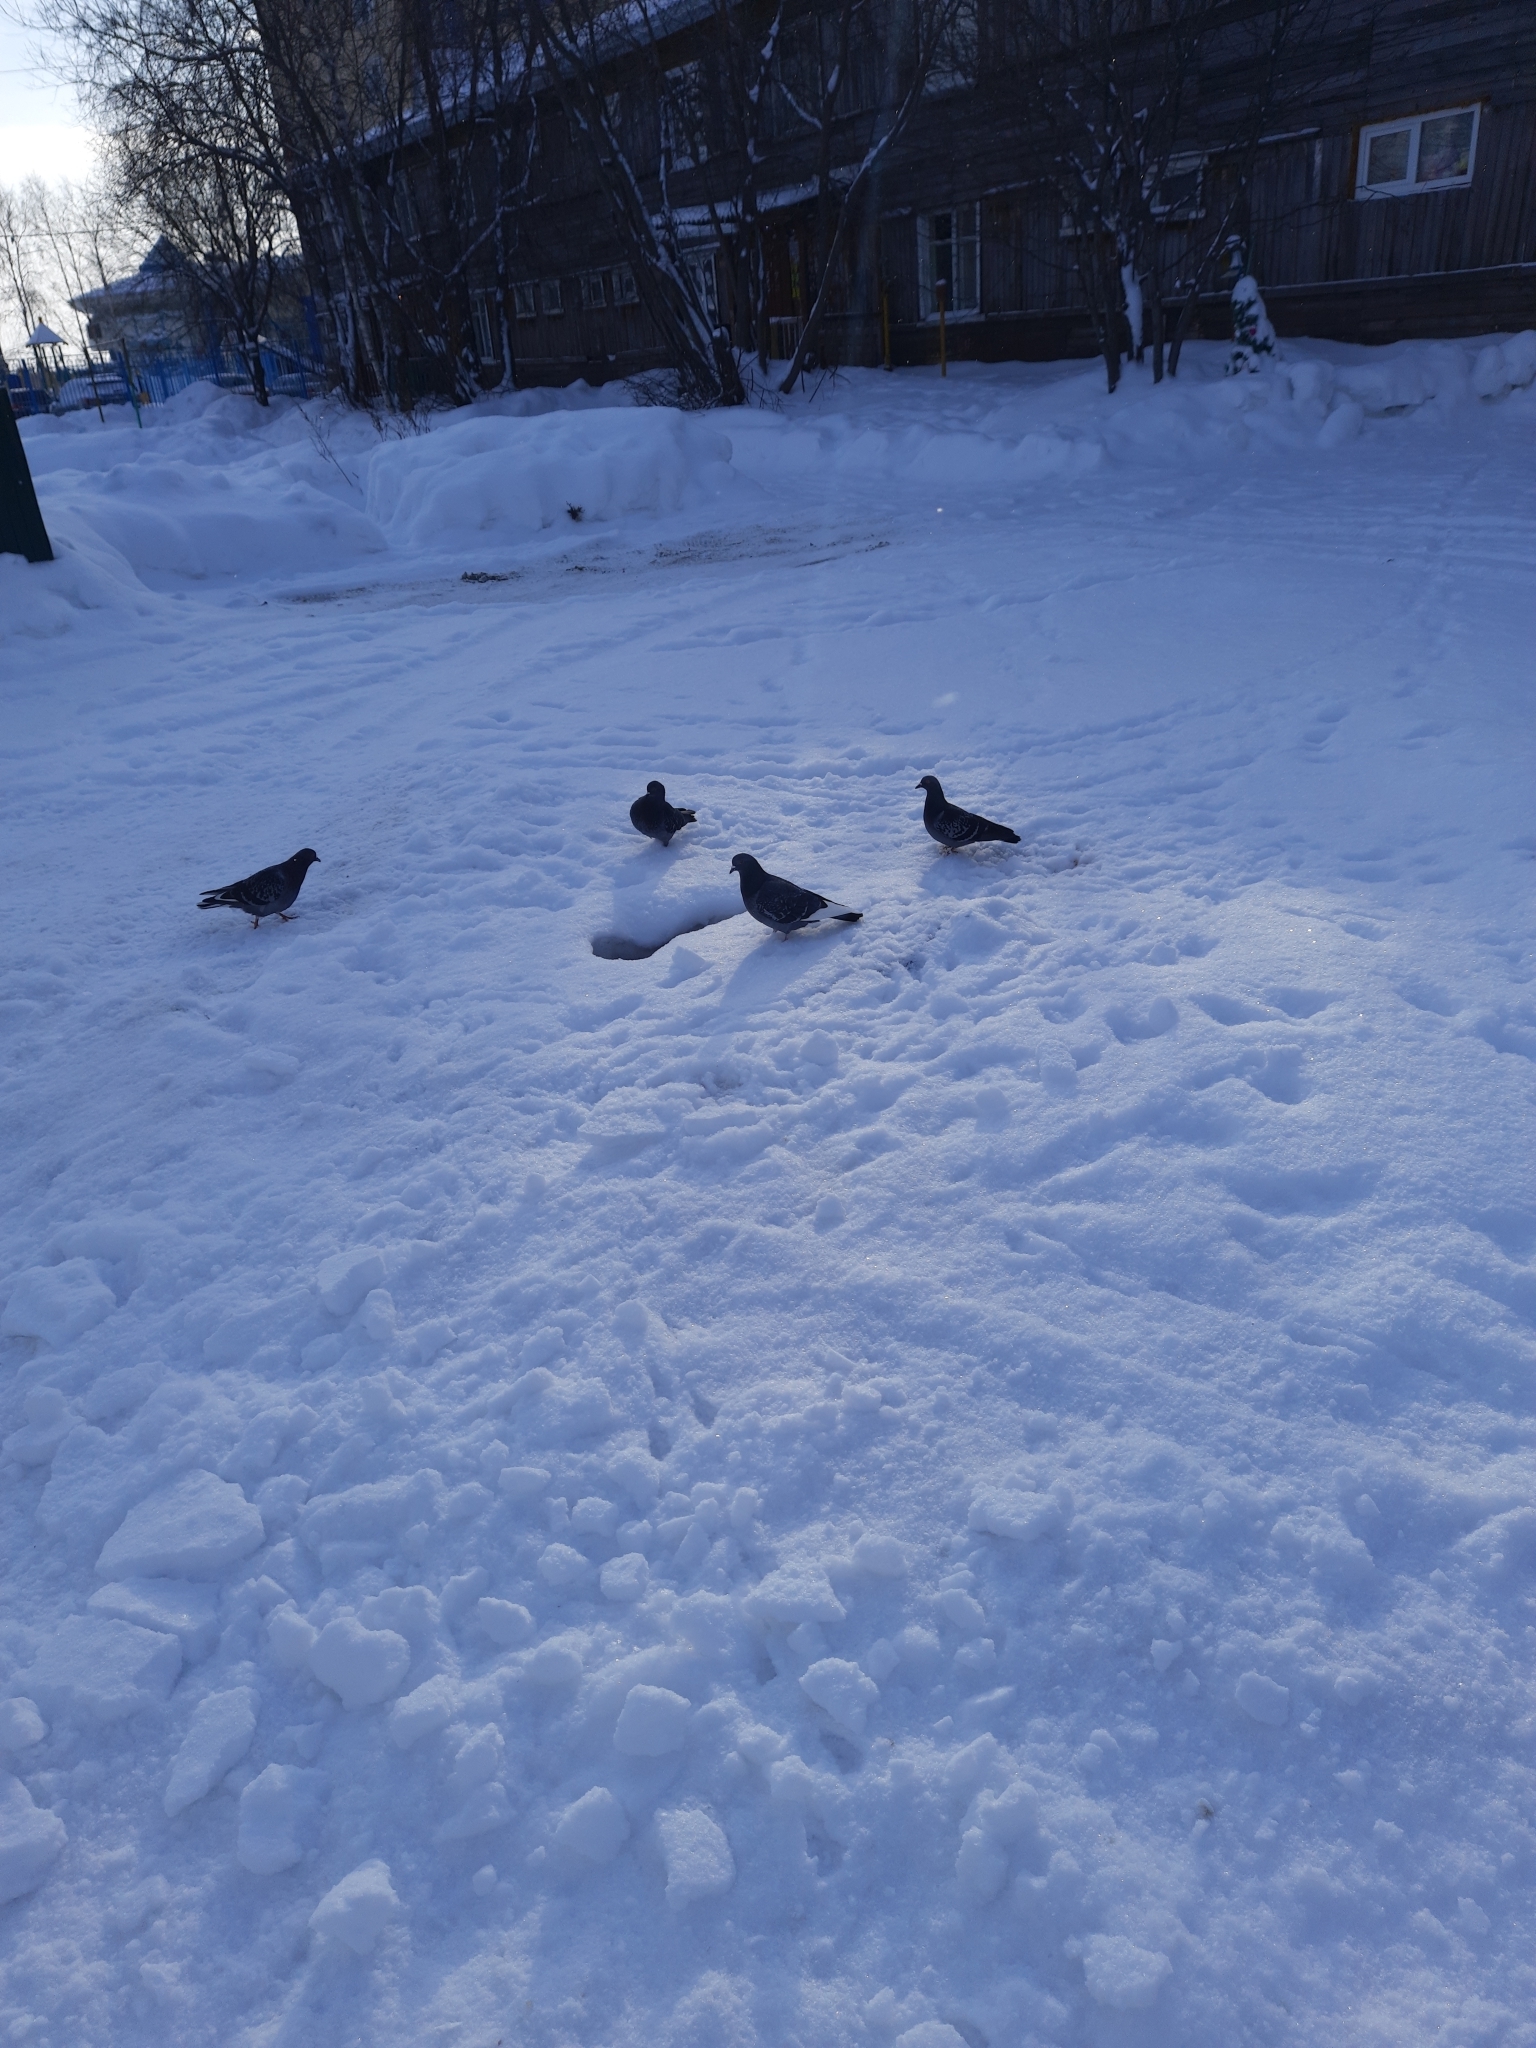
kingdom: Animalia
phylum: Chordata
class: Aves
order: Columbiformes
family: Columbidae
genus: Columba
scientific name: Columba livia
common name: Rock pigeon
